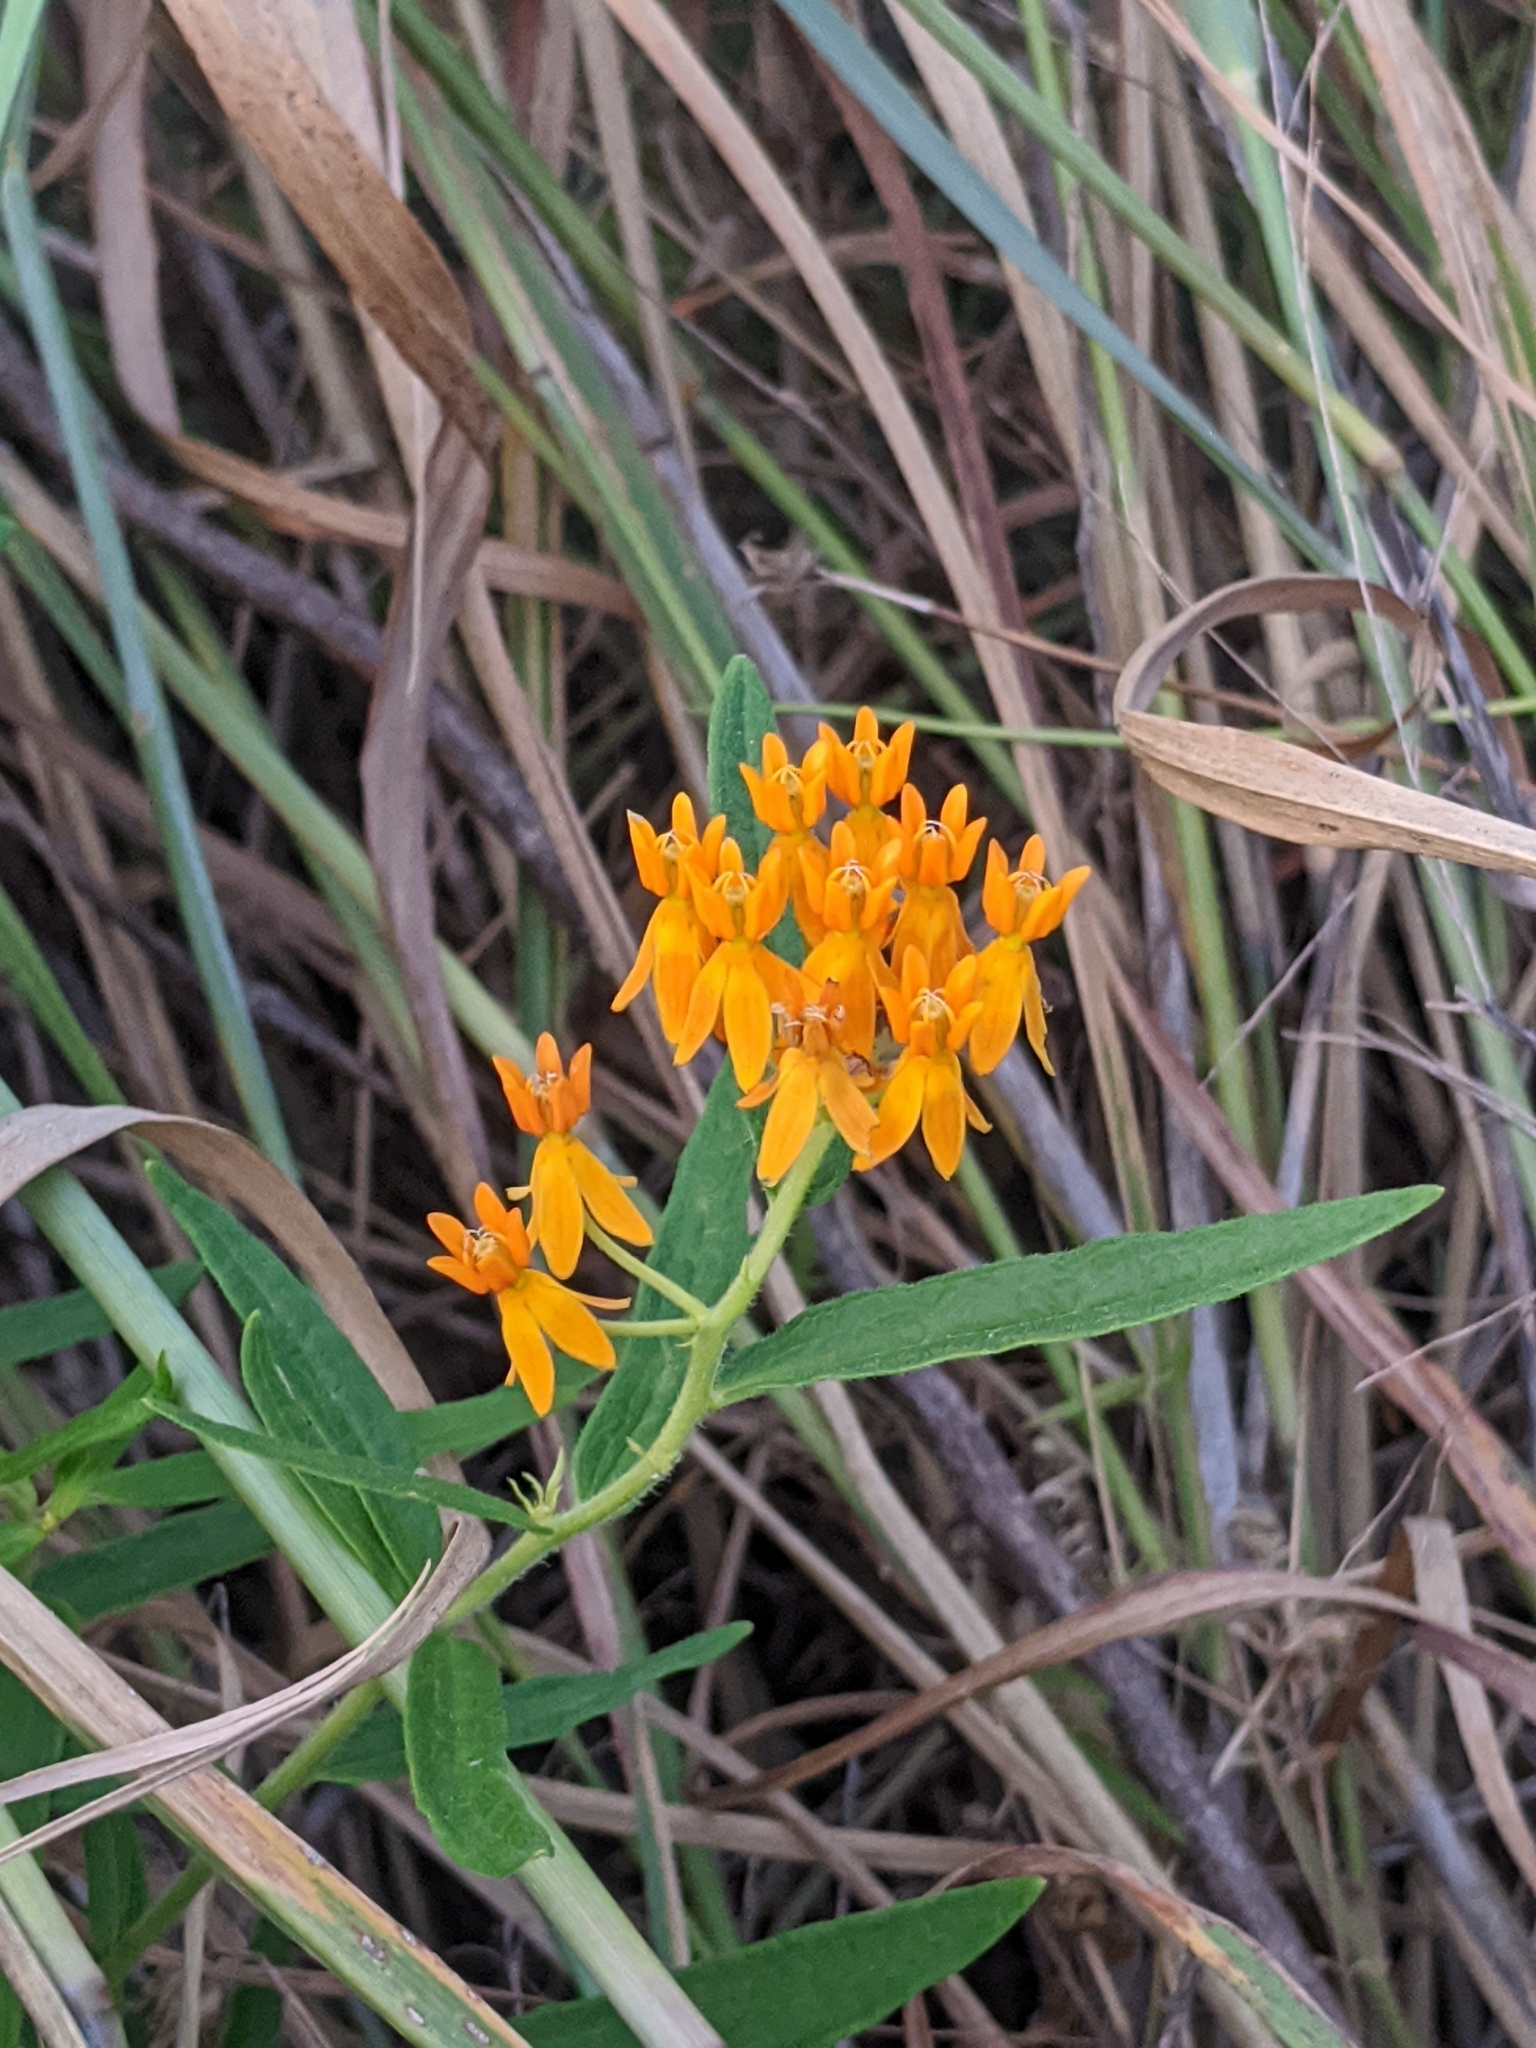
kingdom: Plantae
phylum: Tracheophyta
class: Magnoliopsida
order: Gentianales
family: Apocynaceae
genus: Asclepias
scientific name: Asclepias tuberosa
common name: Butterfly milkweed
